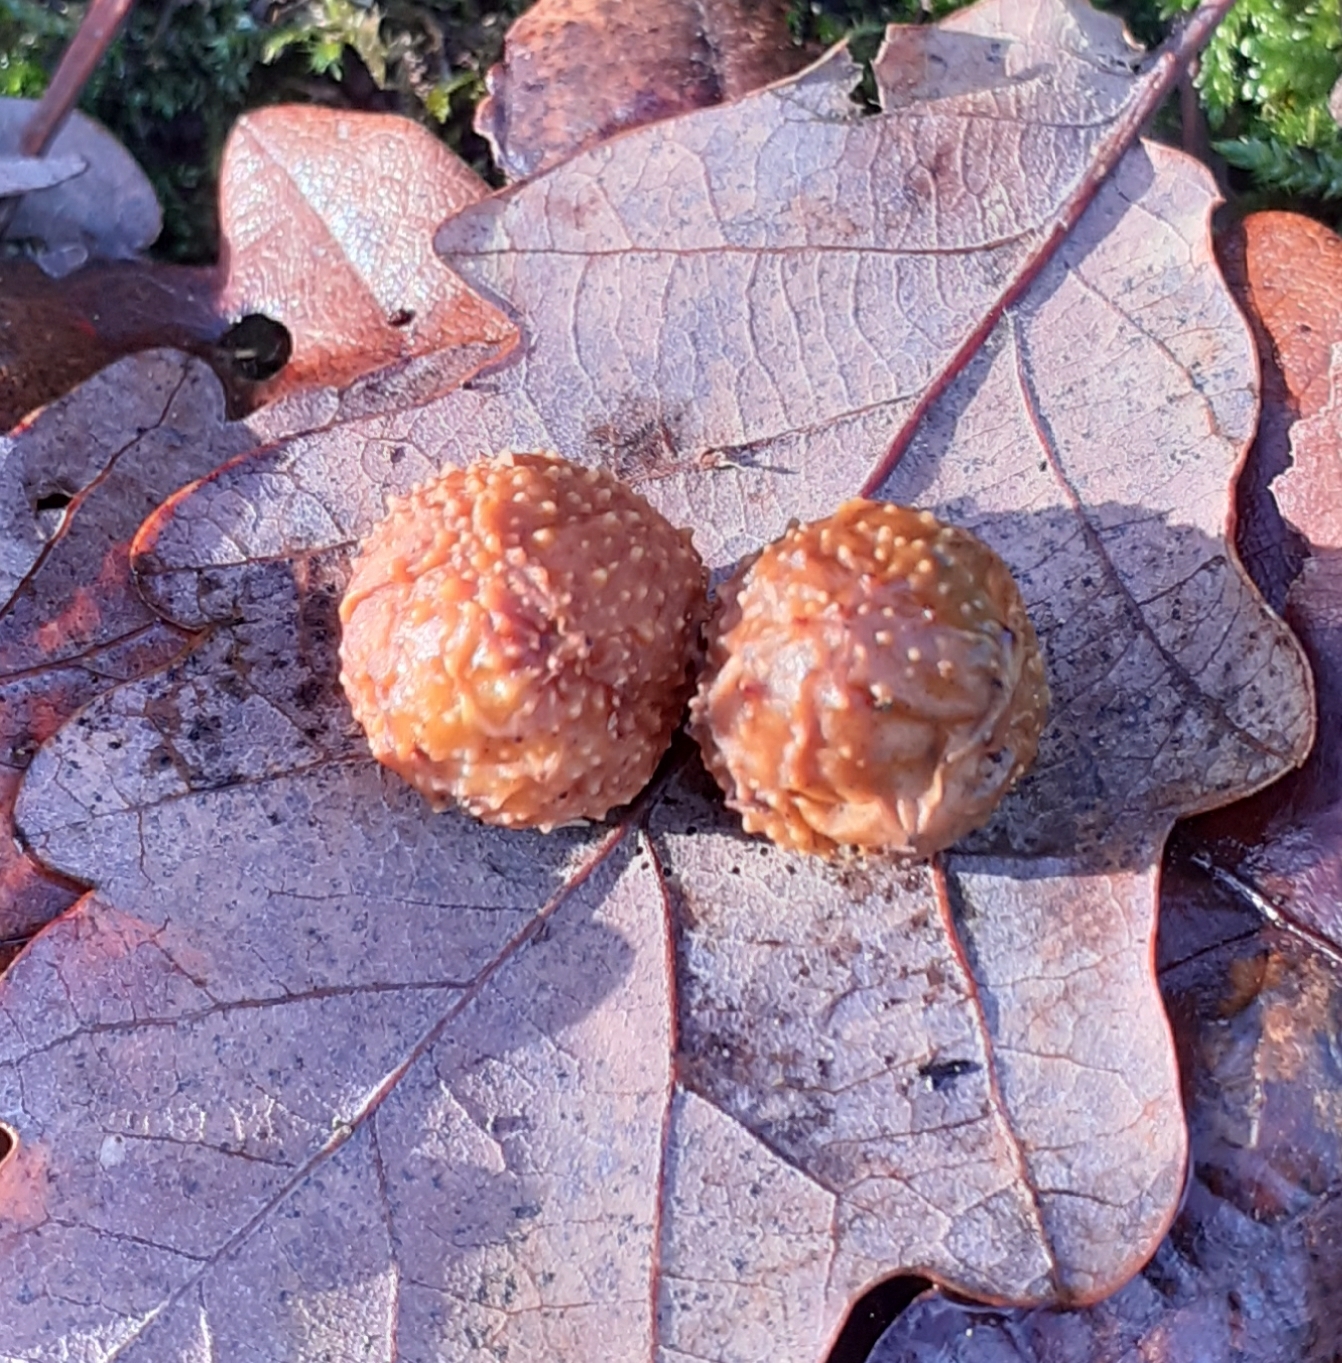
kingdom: Animalia
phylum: Arthropoda
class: Insecta
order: Hymenoptera
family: Cynipidae
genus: Cynips
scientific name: Cynips quercusfolii
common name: Cherry gall
